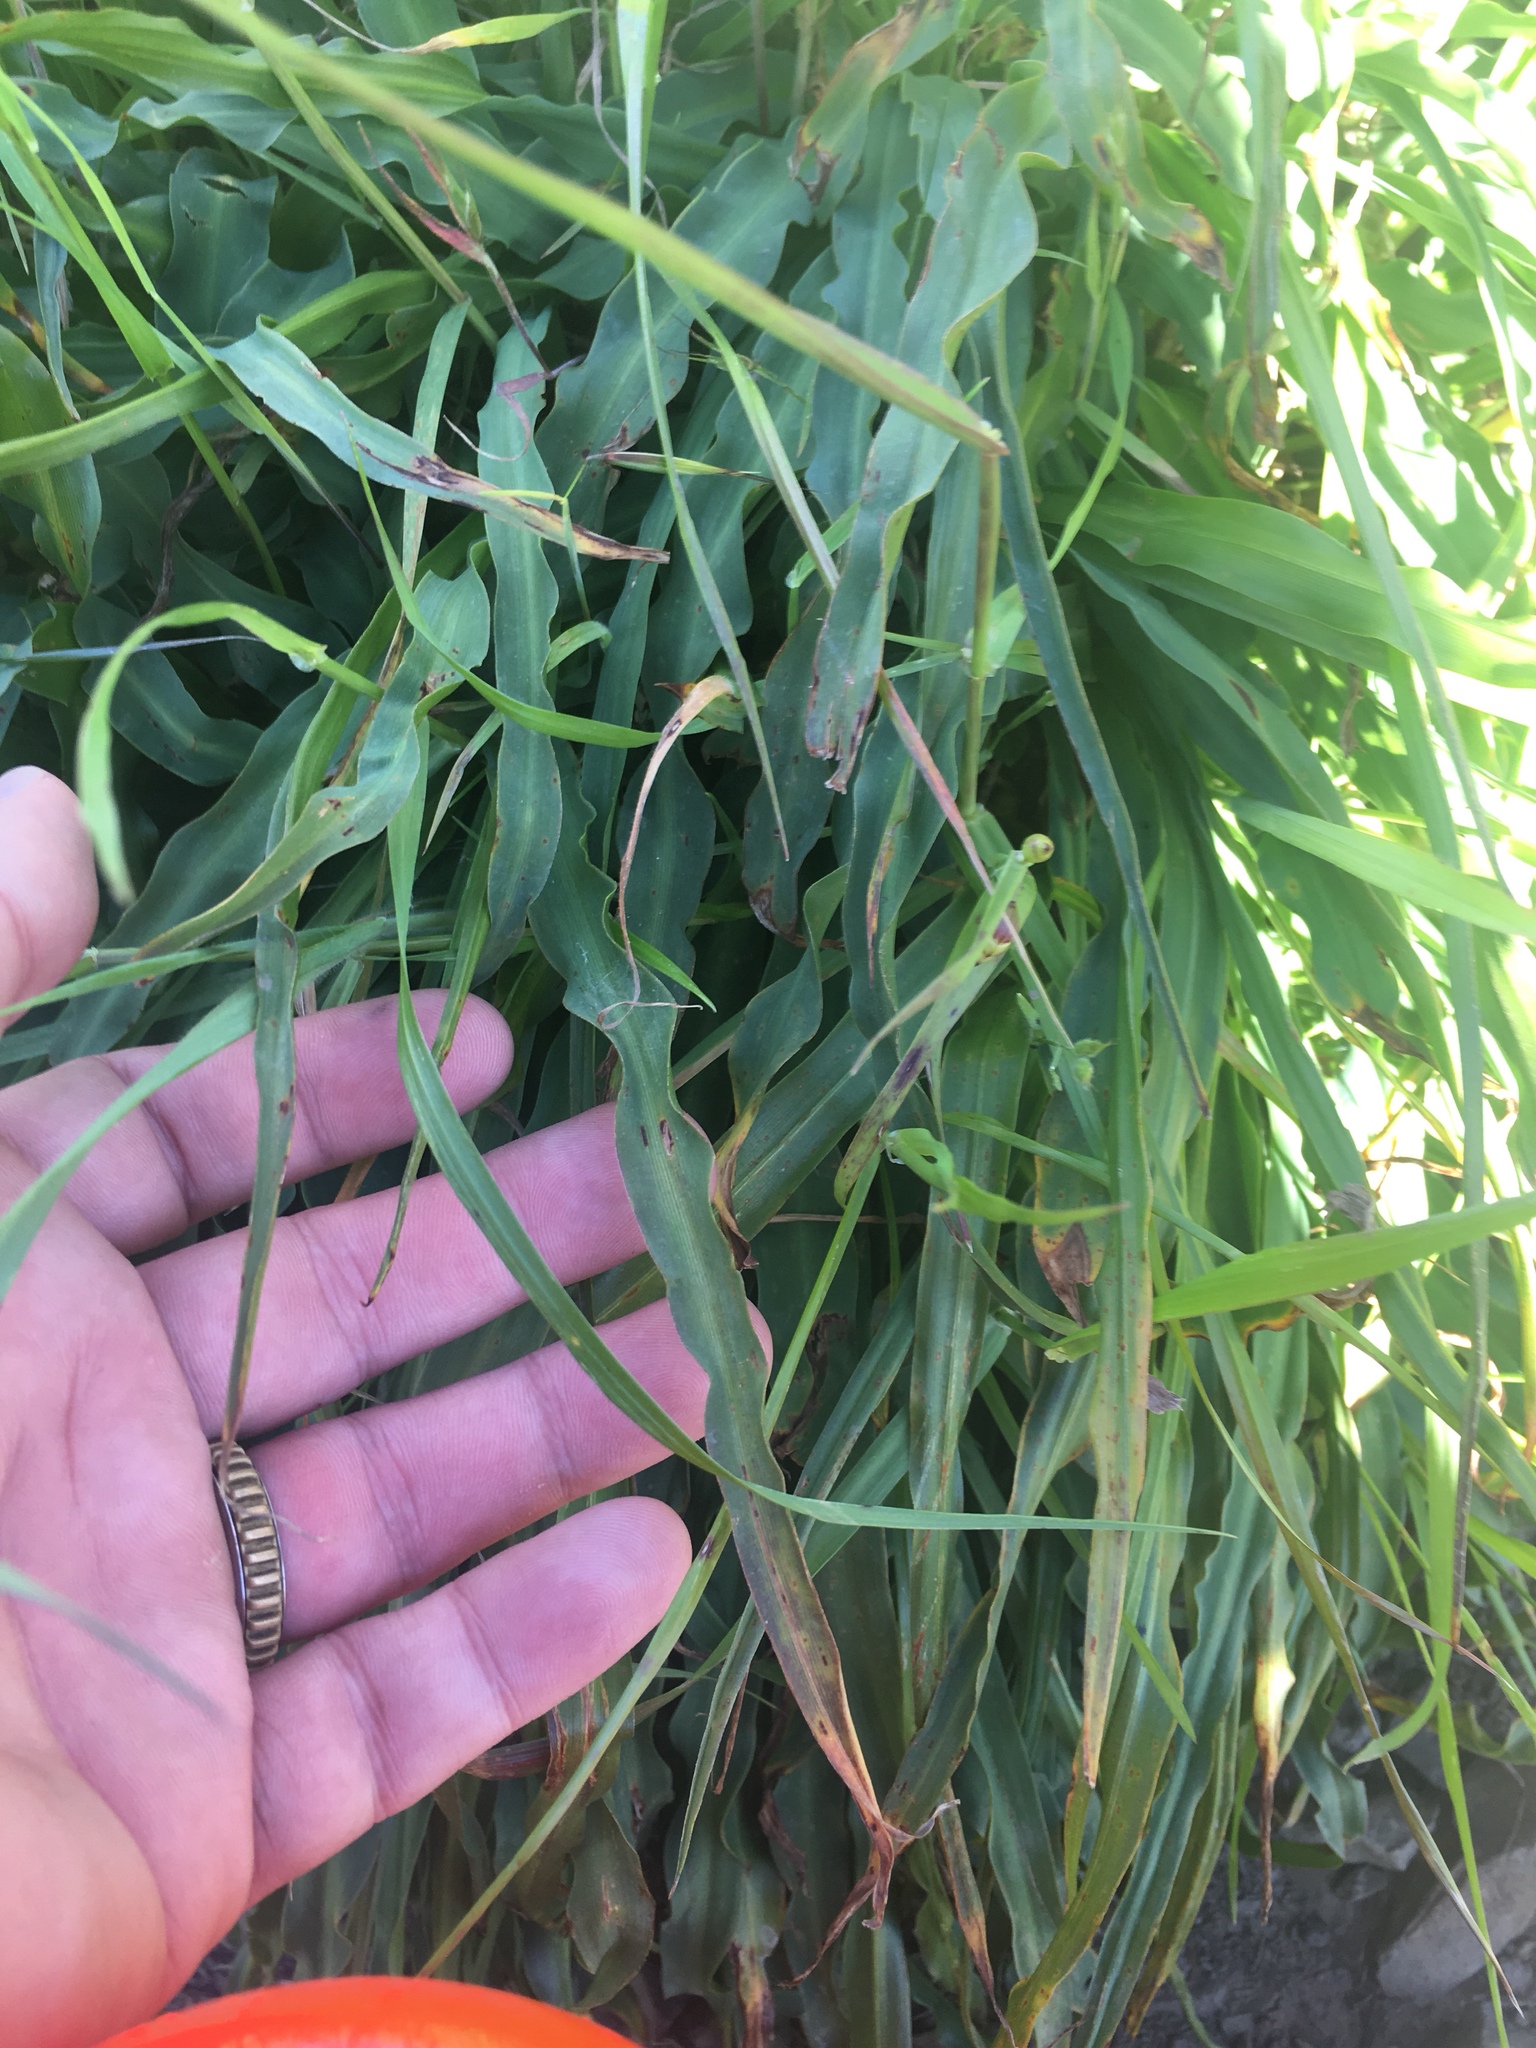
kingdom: Plantae
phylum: Tracheophyta
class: Liliopsida
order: Asparagales
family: Asparagaceae
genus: Chlorogalum
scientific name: Chlorogalum pomeridianum
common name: Amole
